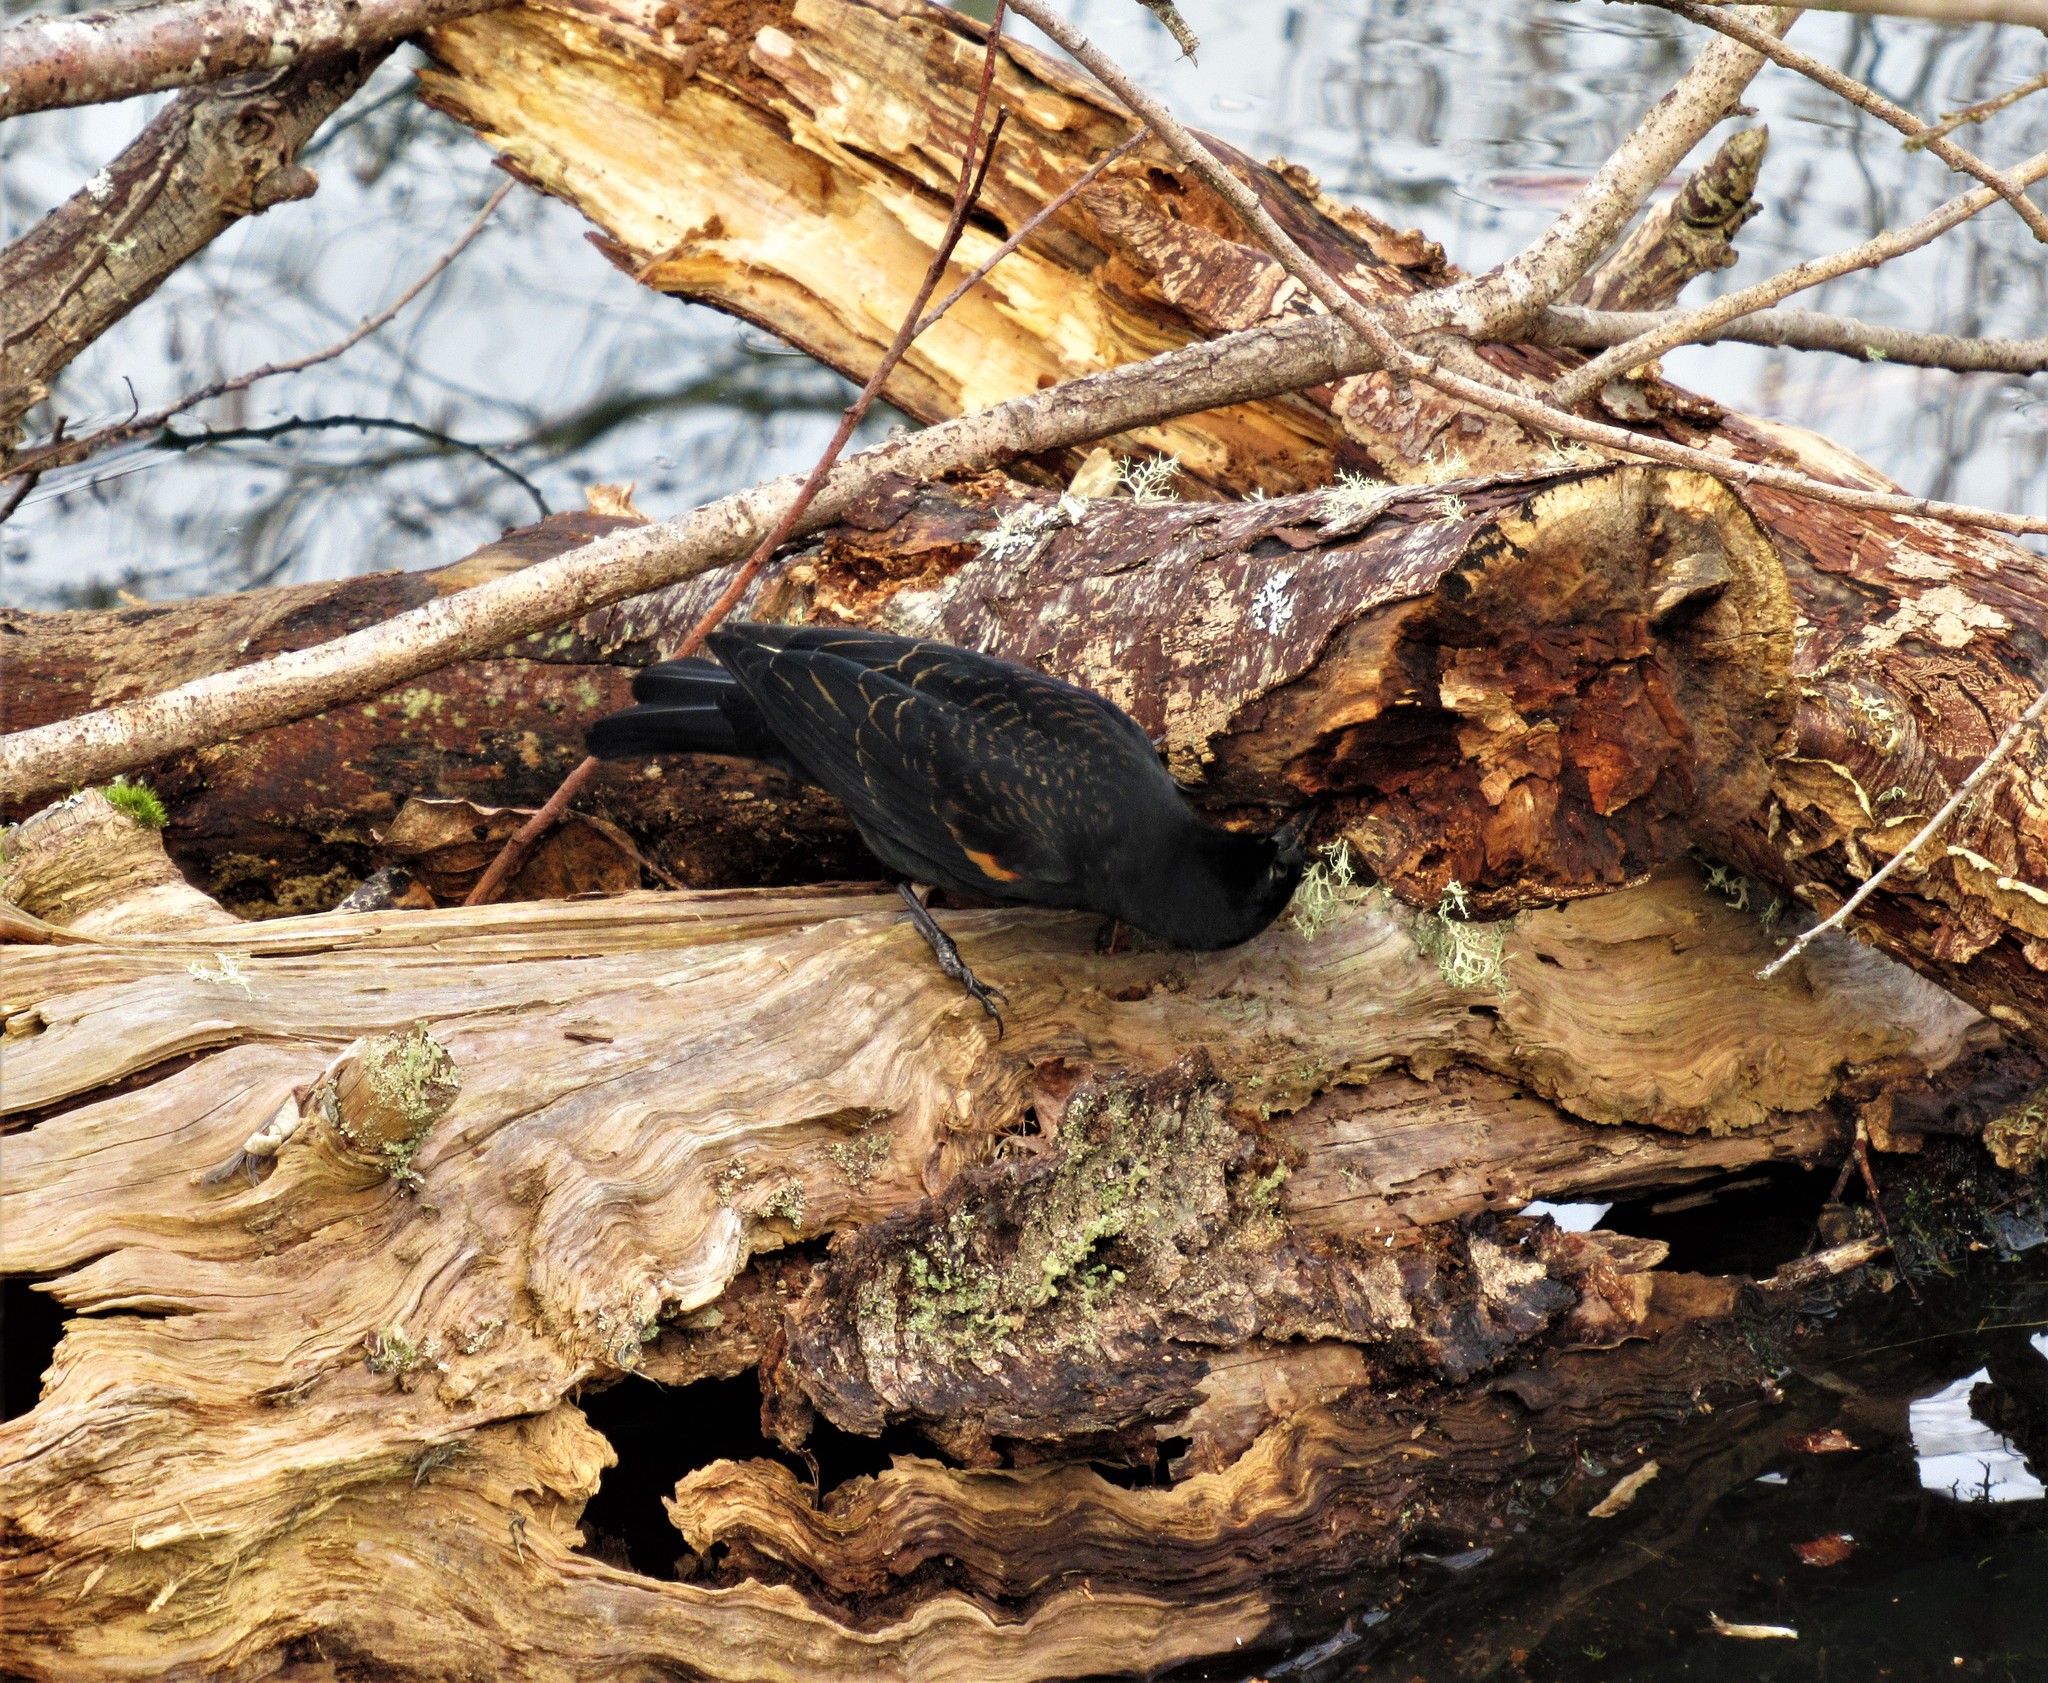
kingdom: Animalia
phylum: Chordata
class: Aves
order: Passeriformes
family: Icteridae
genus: Agelaius
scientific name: Agelaius phoeniceus
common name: Red-winged blackbird
